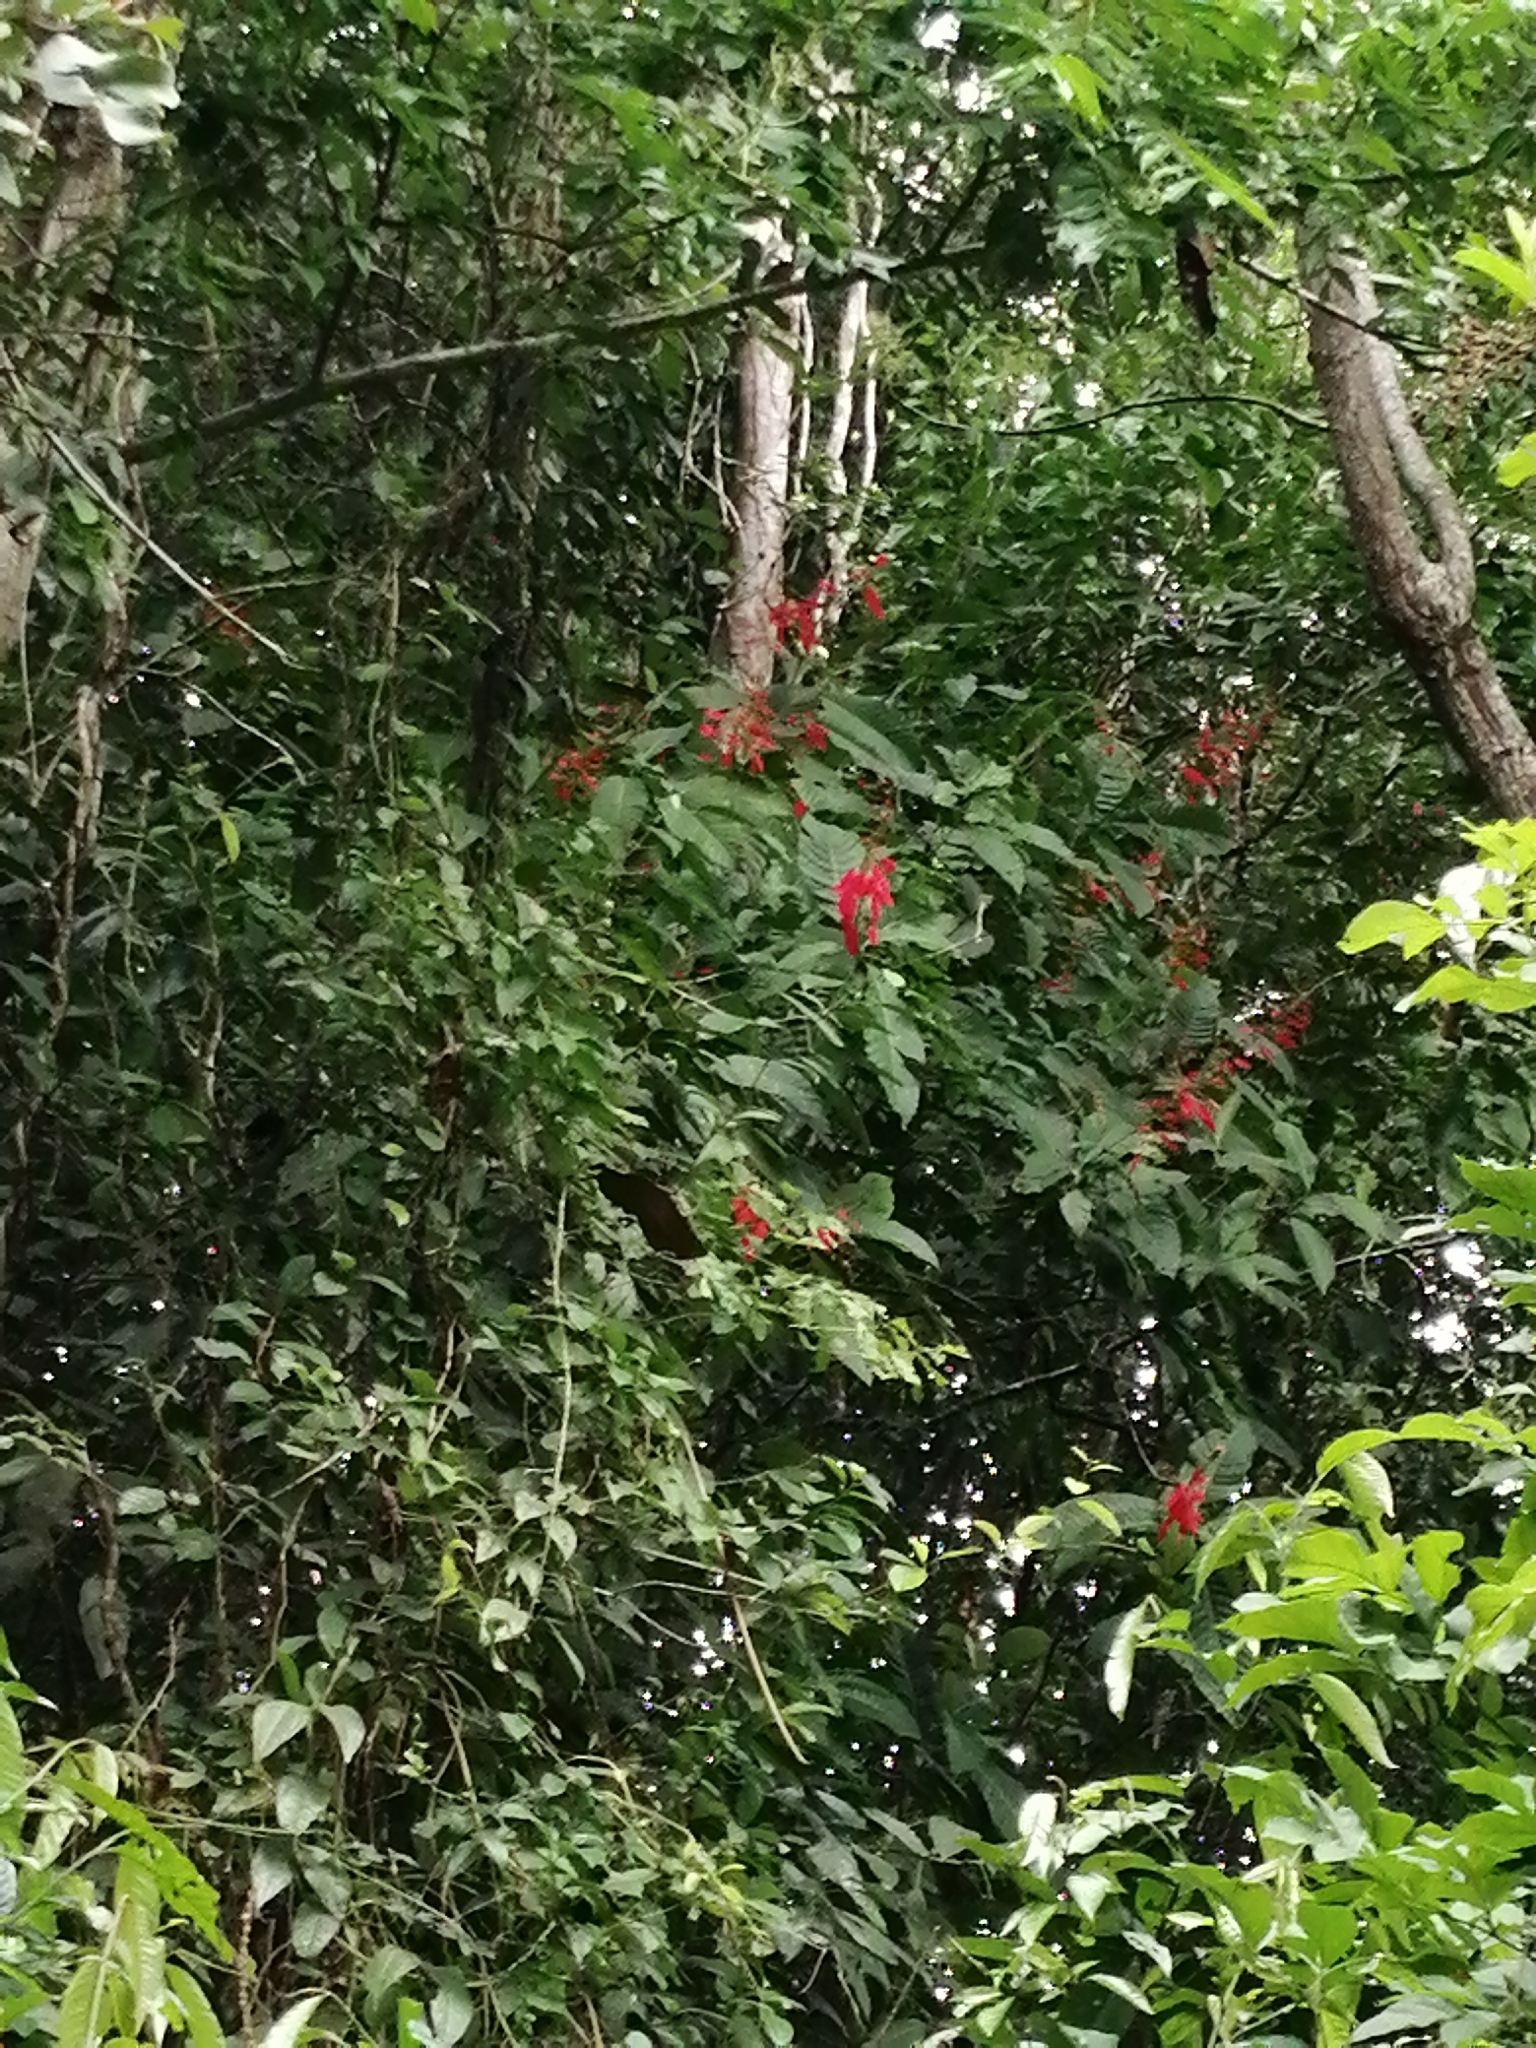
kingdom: Plantae
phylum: Tracheophyta
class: Magnoliopsida
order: Malpighiales
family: Euphorbiaceae
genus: Jatropha
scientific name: Jatropha integerrima
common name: Peregrina
